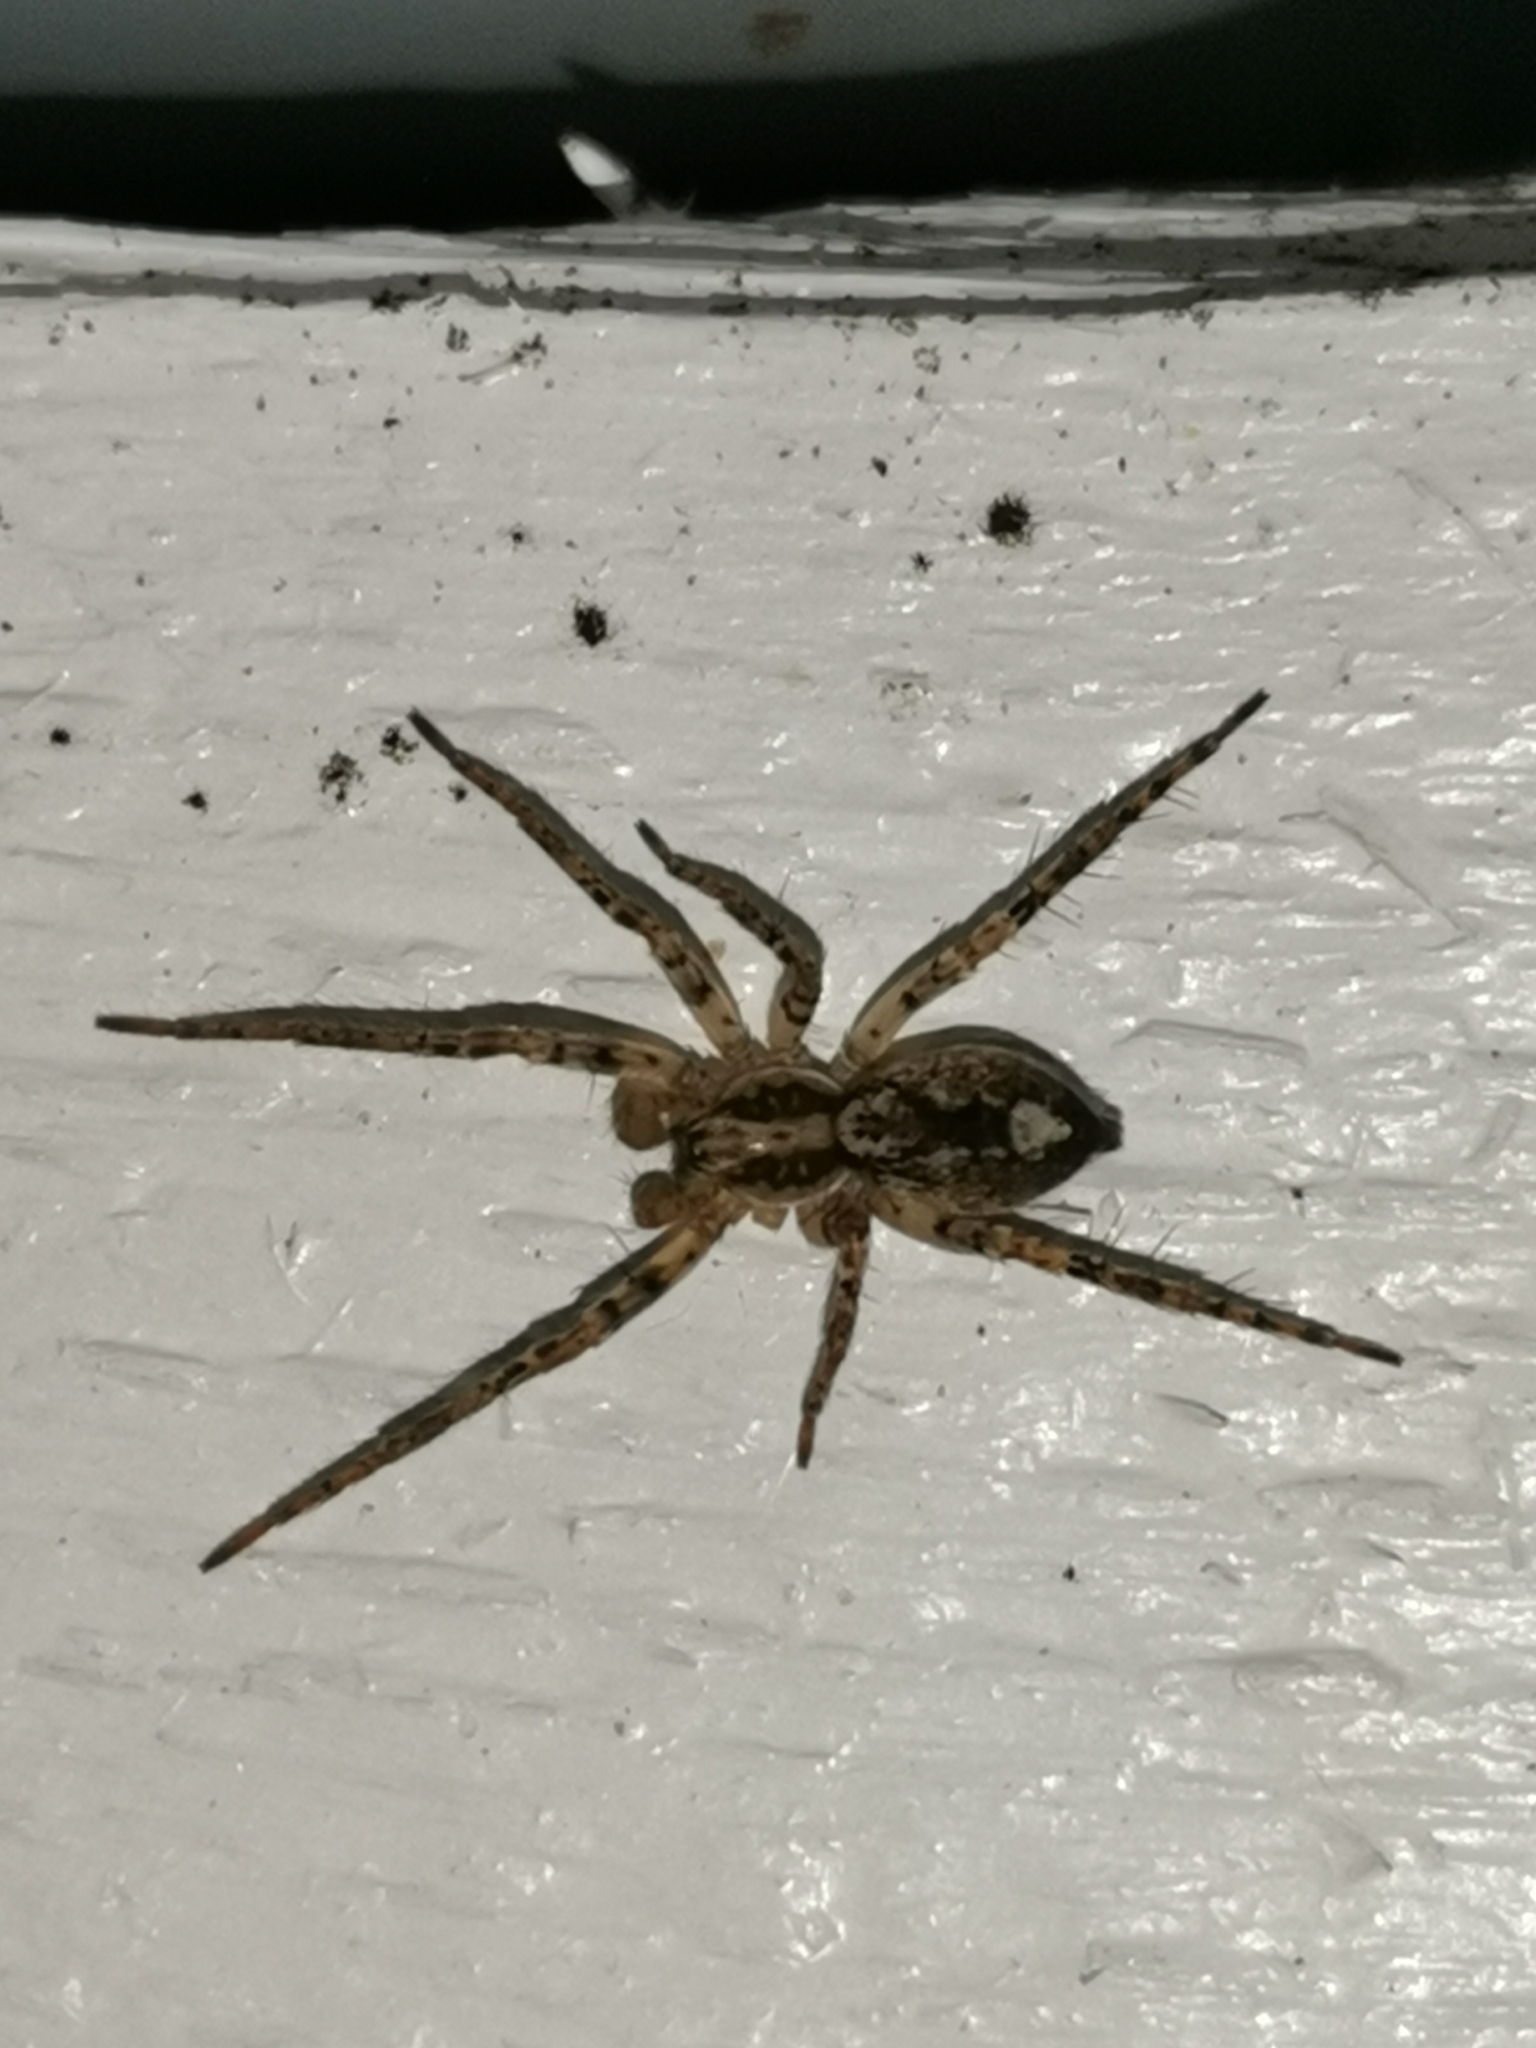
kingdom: Animalia
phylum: Arthropoda
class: Arachnida
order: Araneae
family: Anyphaenidae
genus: Anyphaena
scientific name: Anyphaena accentuata
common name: Buzzing spider
